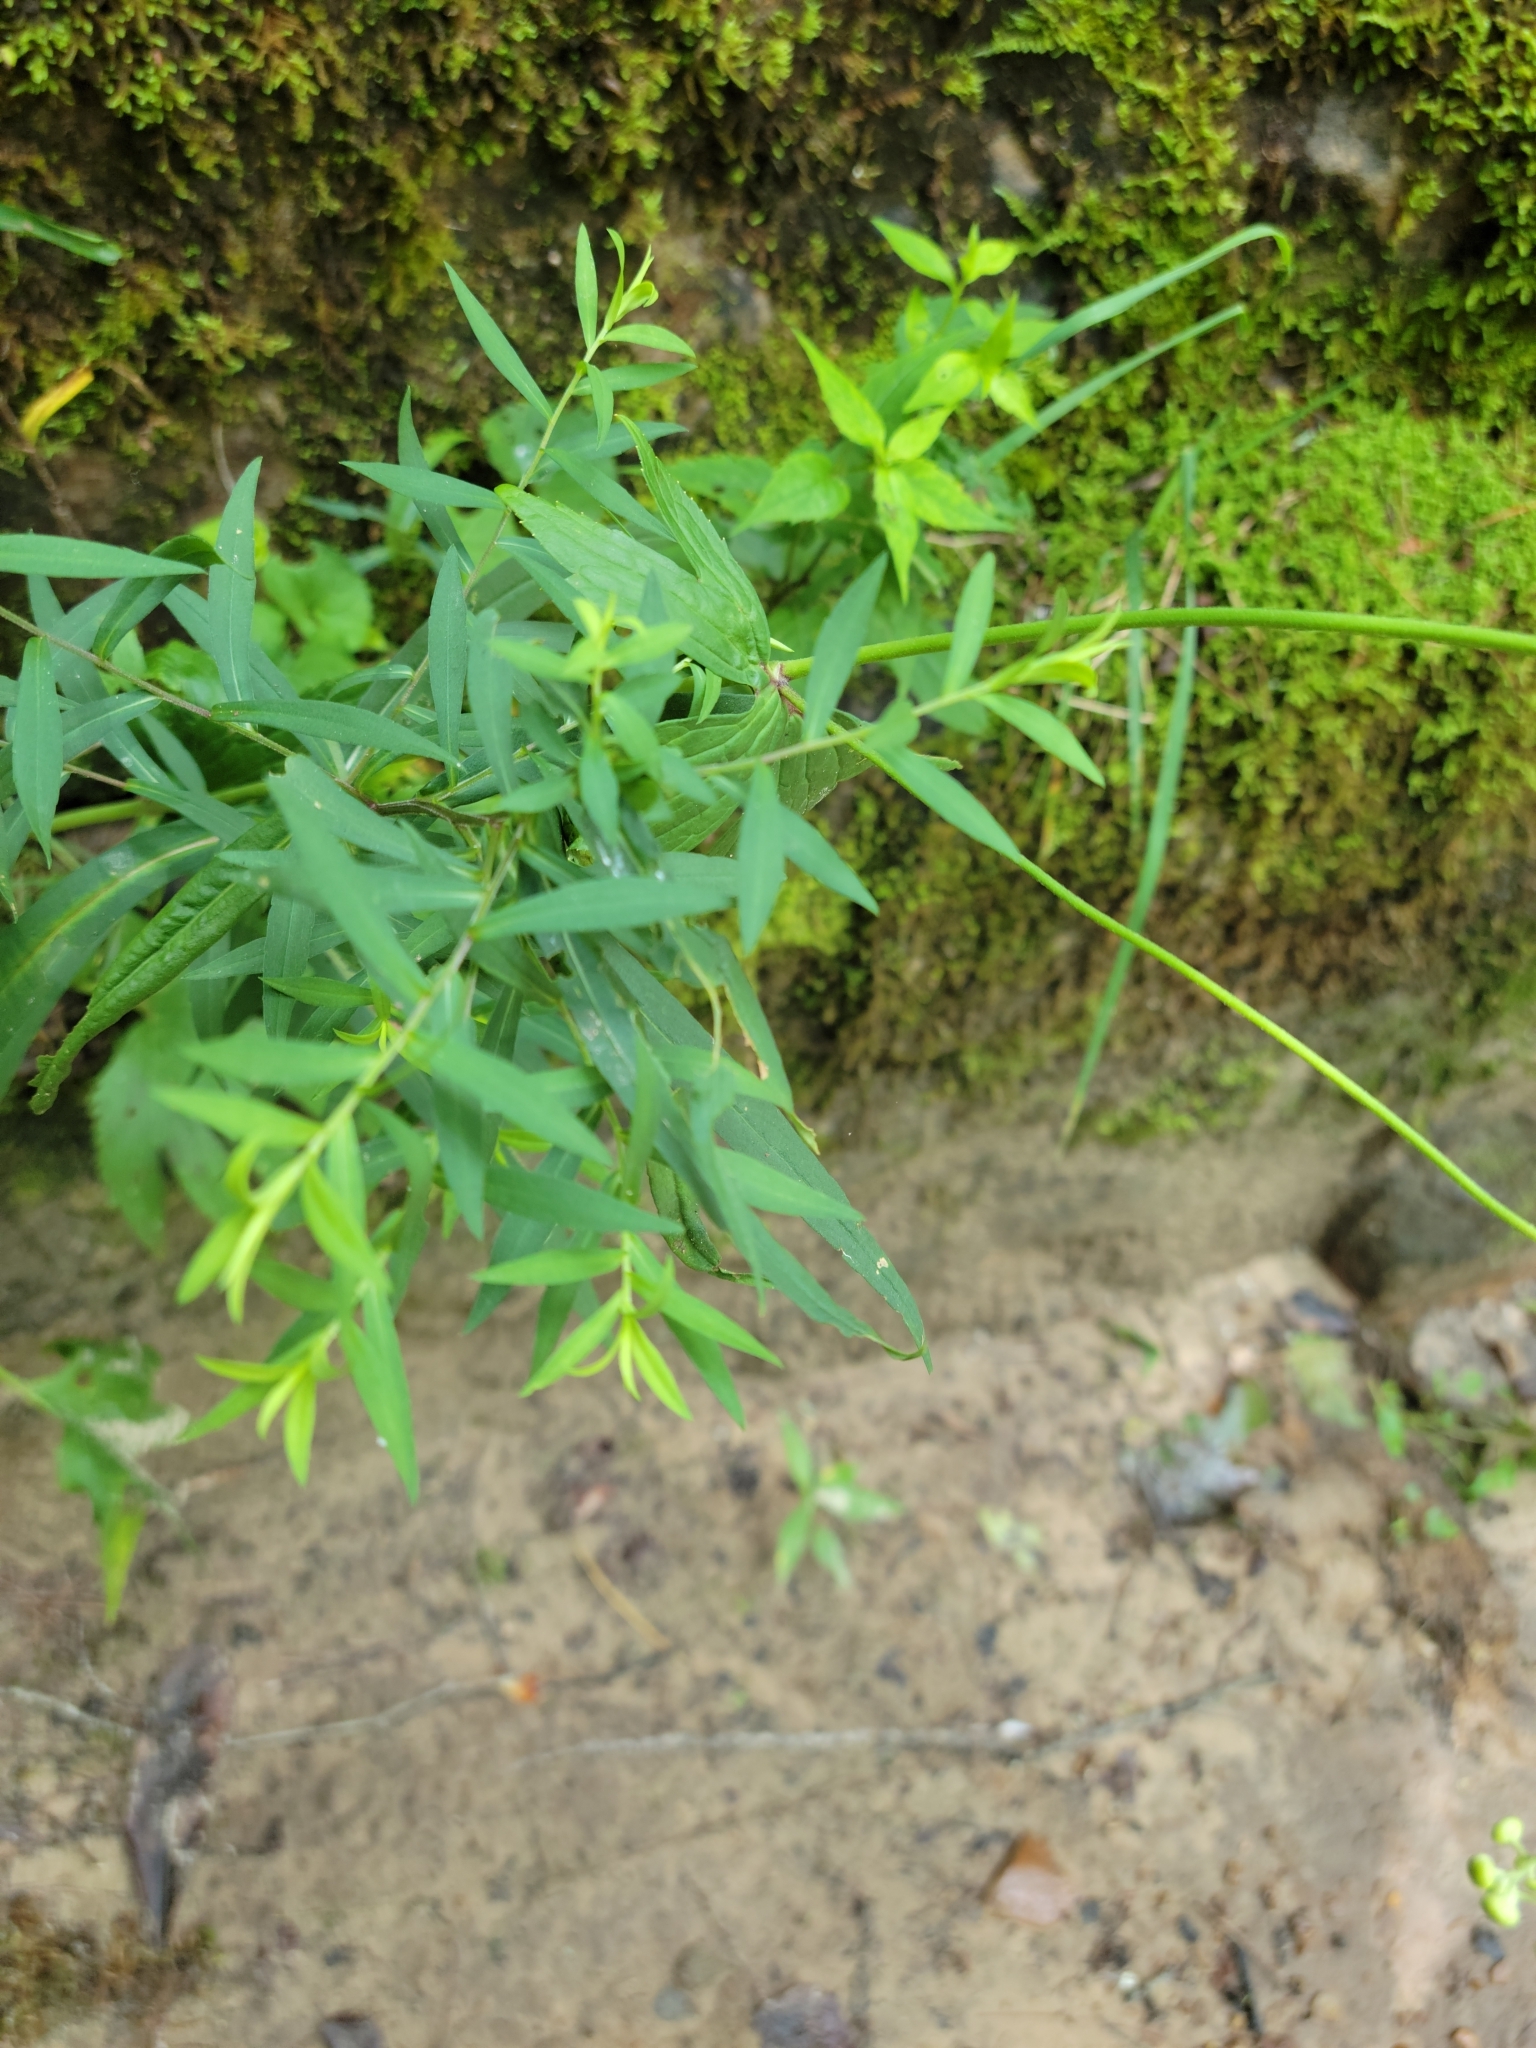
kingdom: Plantae
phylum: Tracheophyta
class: Magnoliopsida
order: Ranunculales
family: Ranunculaceae
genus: Trautvetteria
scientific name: Trautvetteria carolinensis
